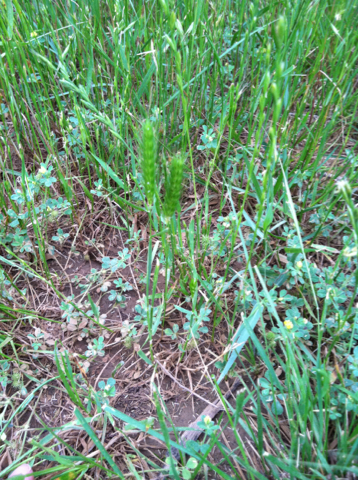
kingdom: Plantae
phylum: Tracheophyta
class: Liliopsida
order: Poales
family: Poaceae
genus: Hordeum
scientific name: Hordeum pusillum
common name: Little barley
